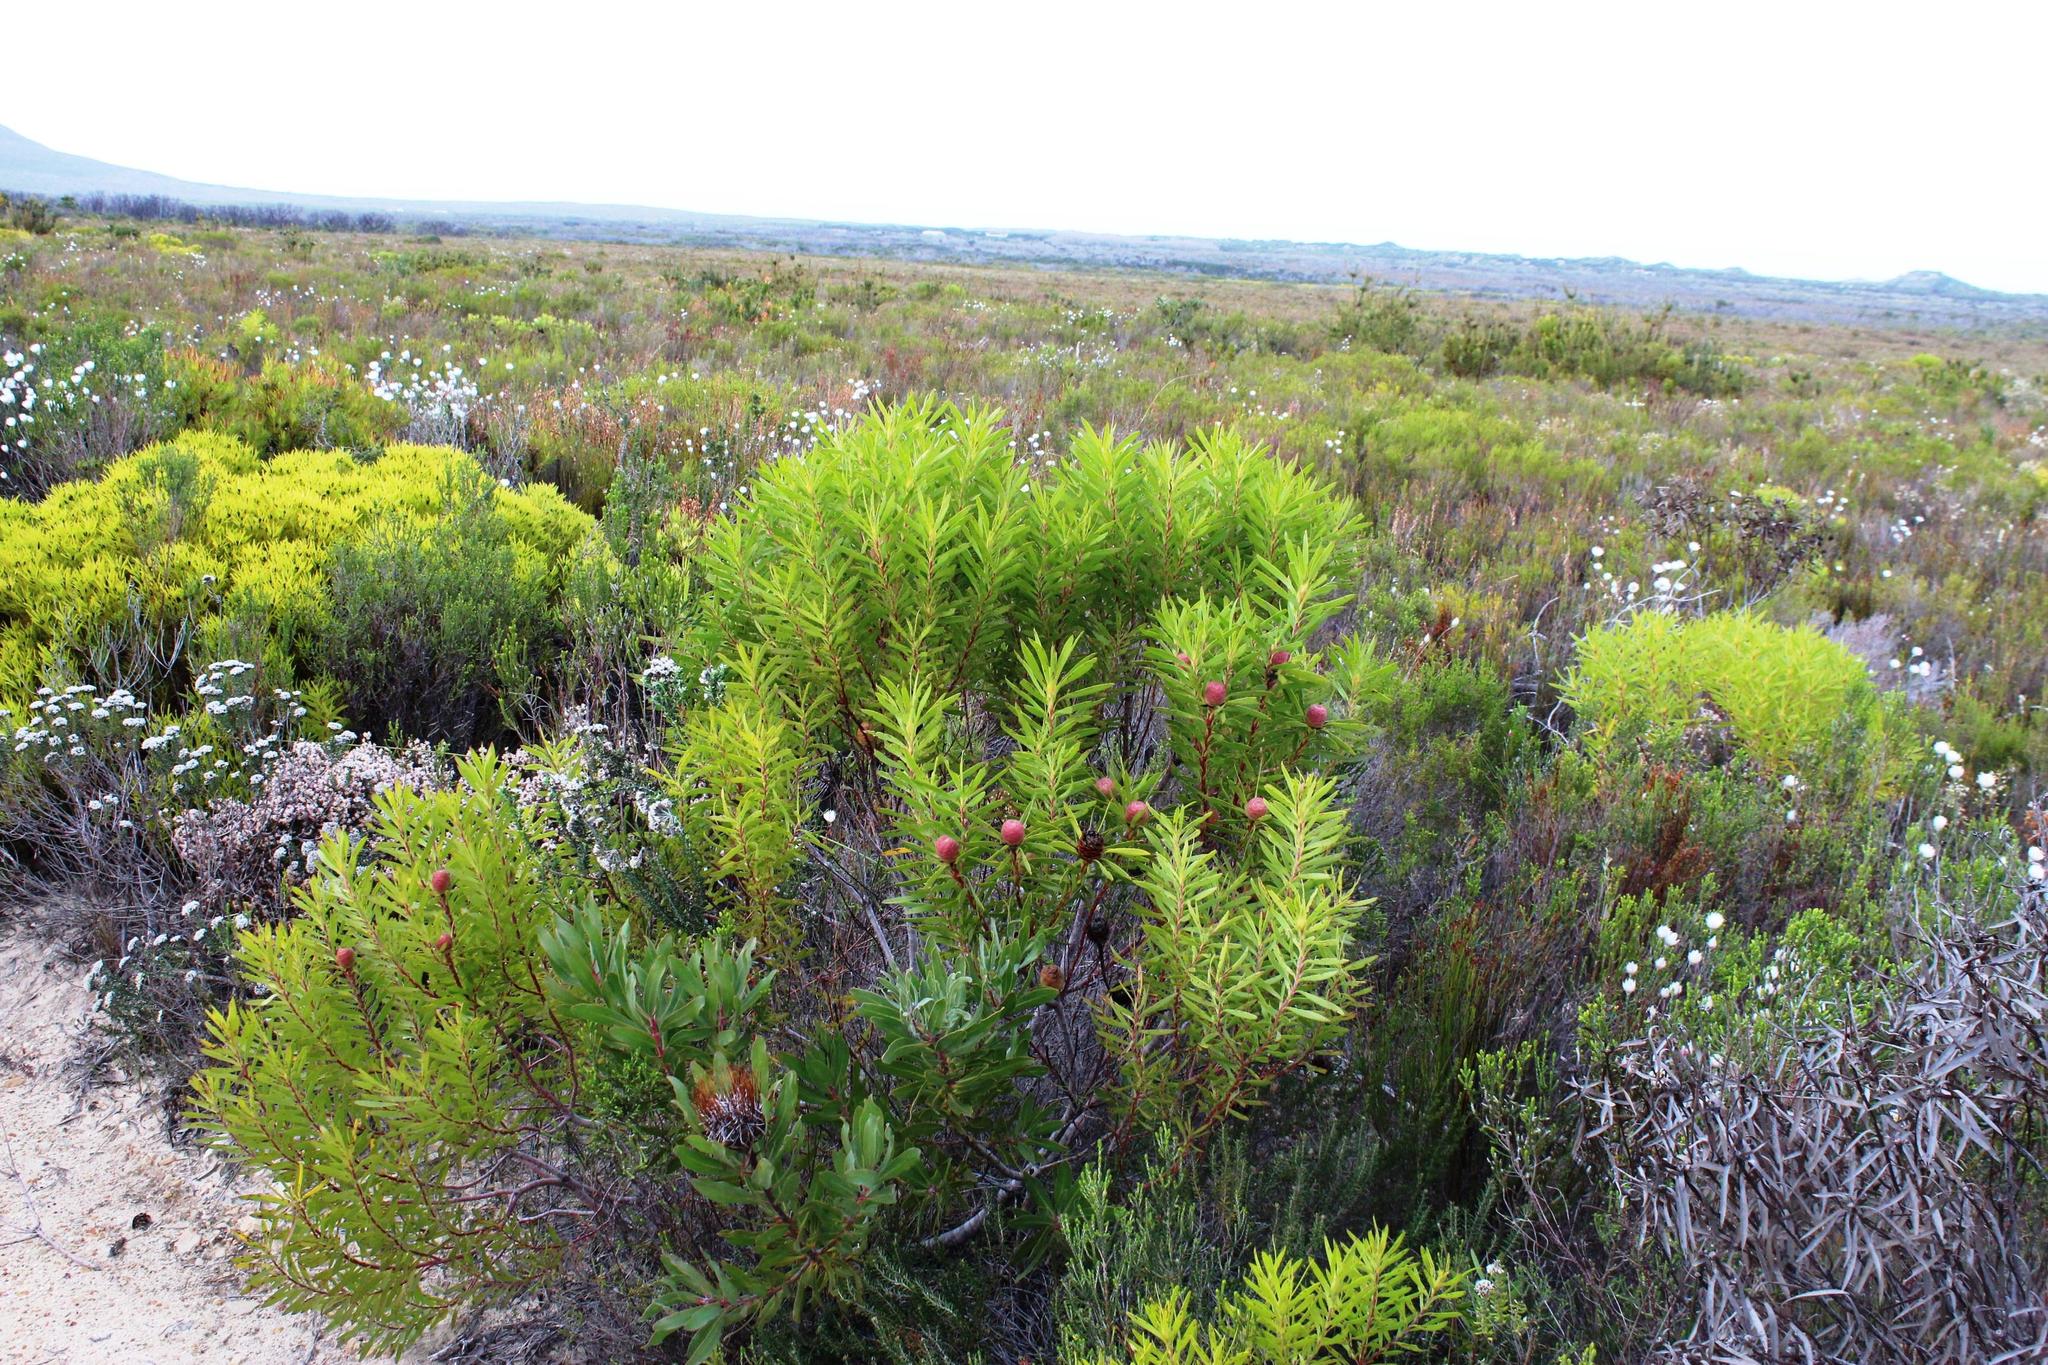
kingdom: Plantae
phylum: Tracheophyta
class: Magnoliopsida
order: Proteales
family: Proteaceae
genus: Leucadendron
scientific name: Leucadendron coniferum
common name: Dune conebush
